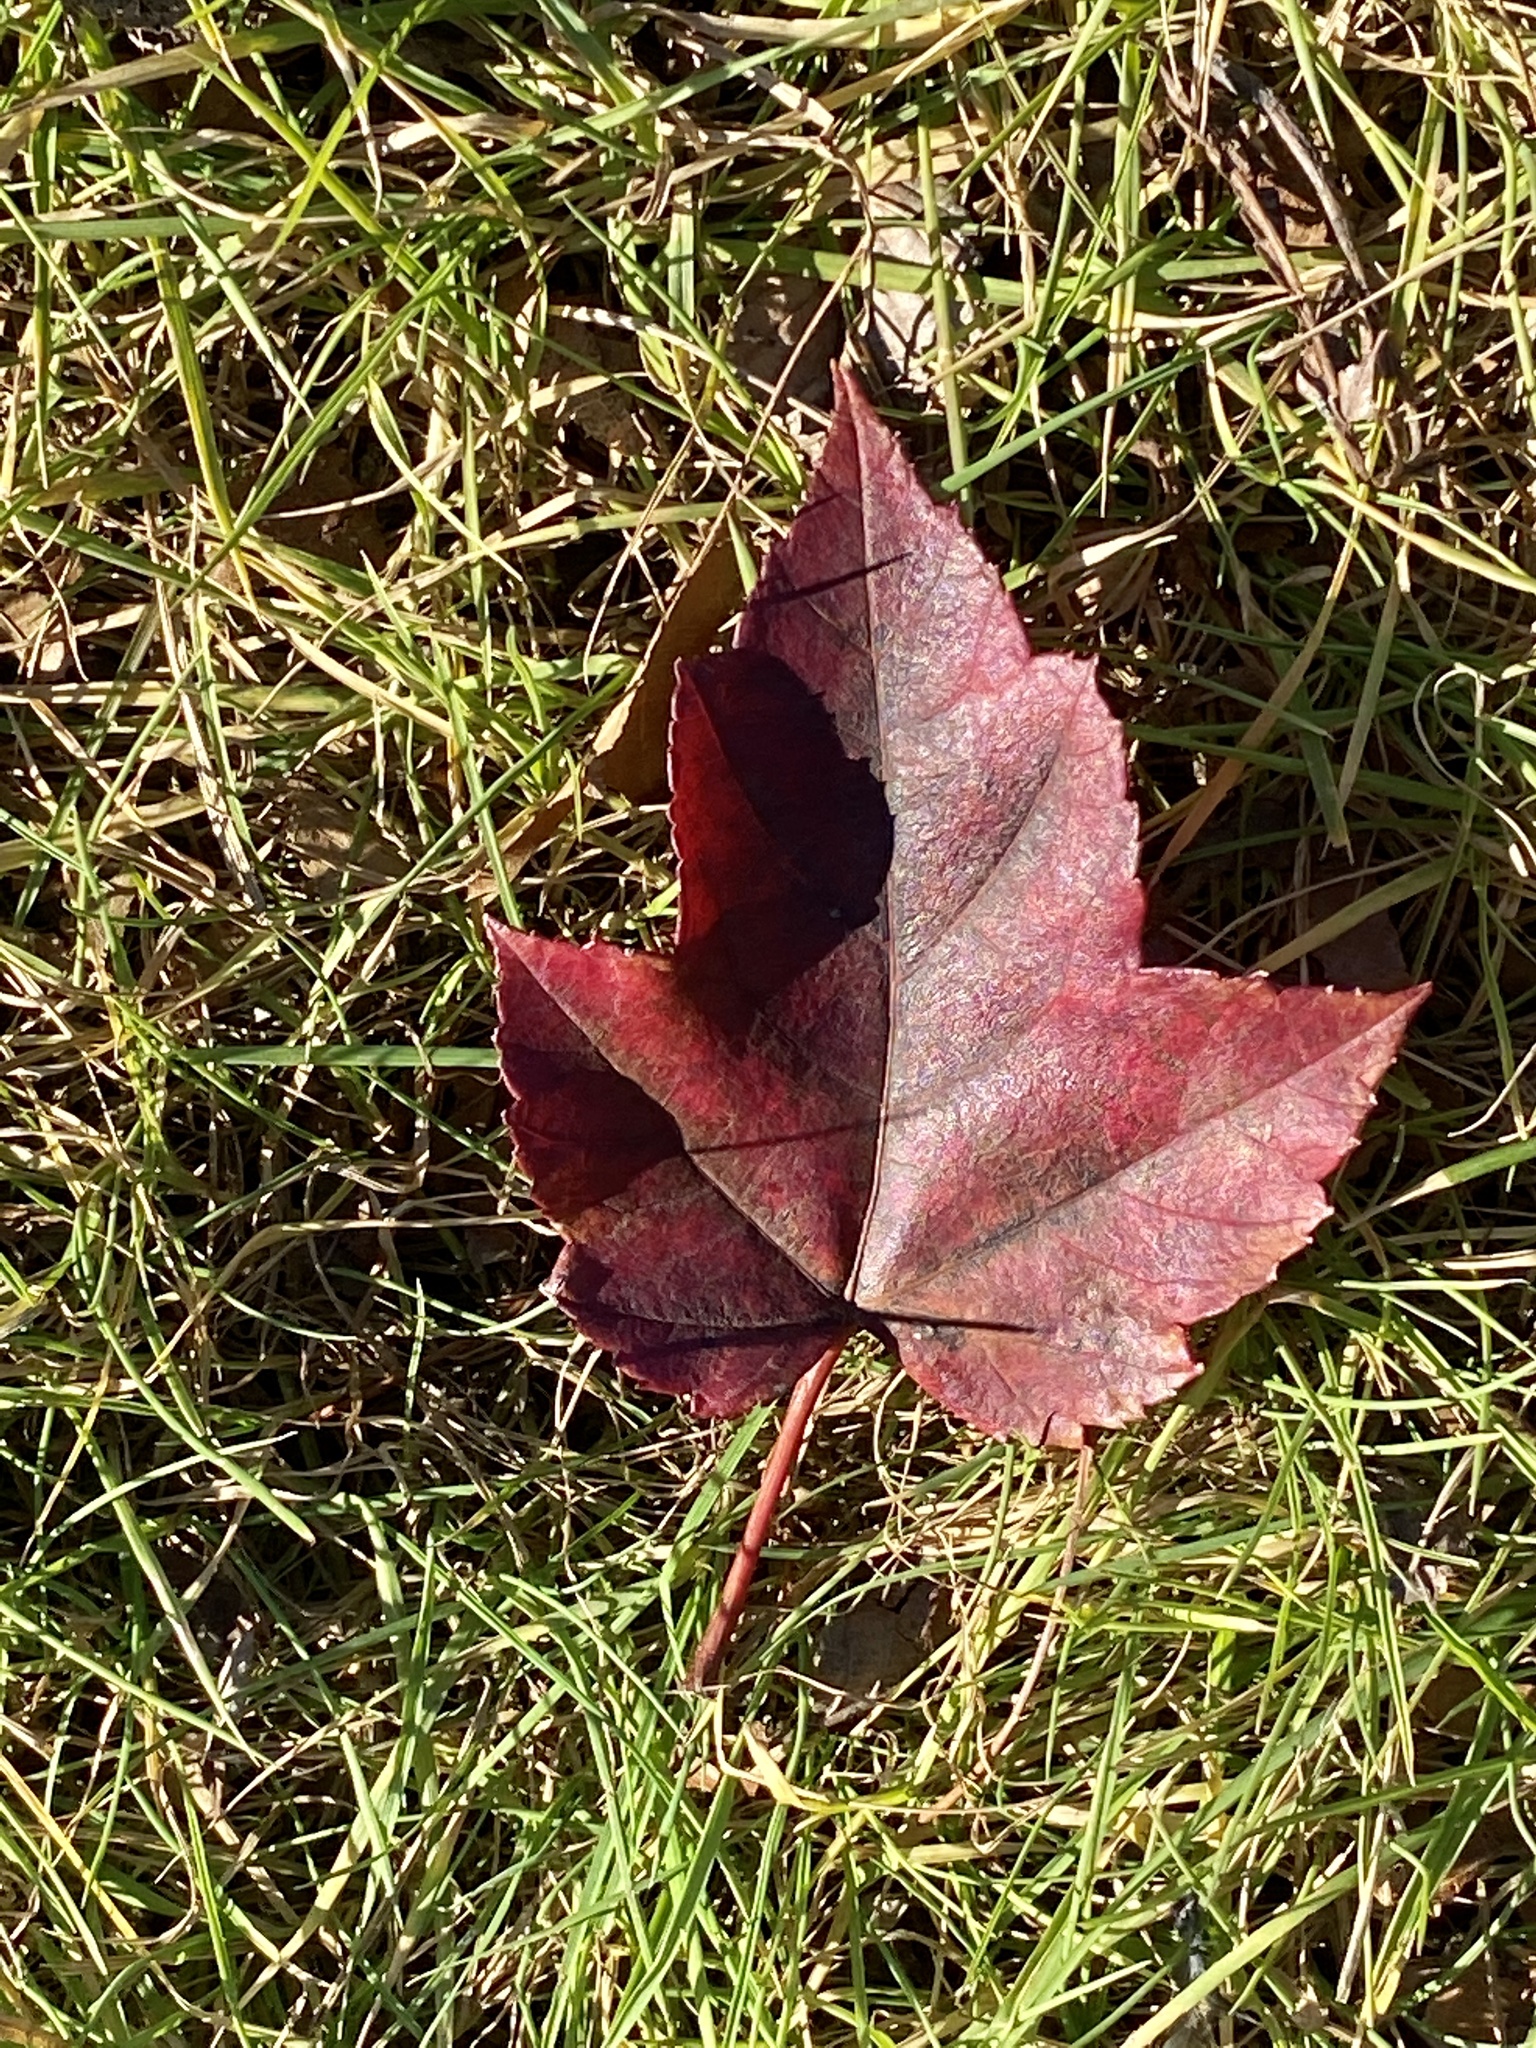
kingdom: Plantae
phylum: Tracheophyta
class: Magnoliopsida
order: Sapindales
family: Sapindaceae
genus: Acer
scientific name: Acer rubrum
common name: Red maple
